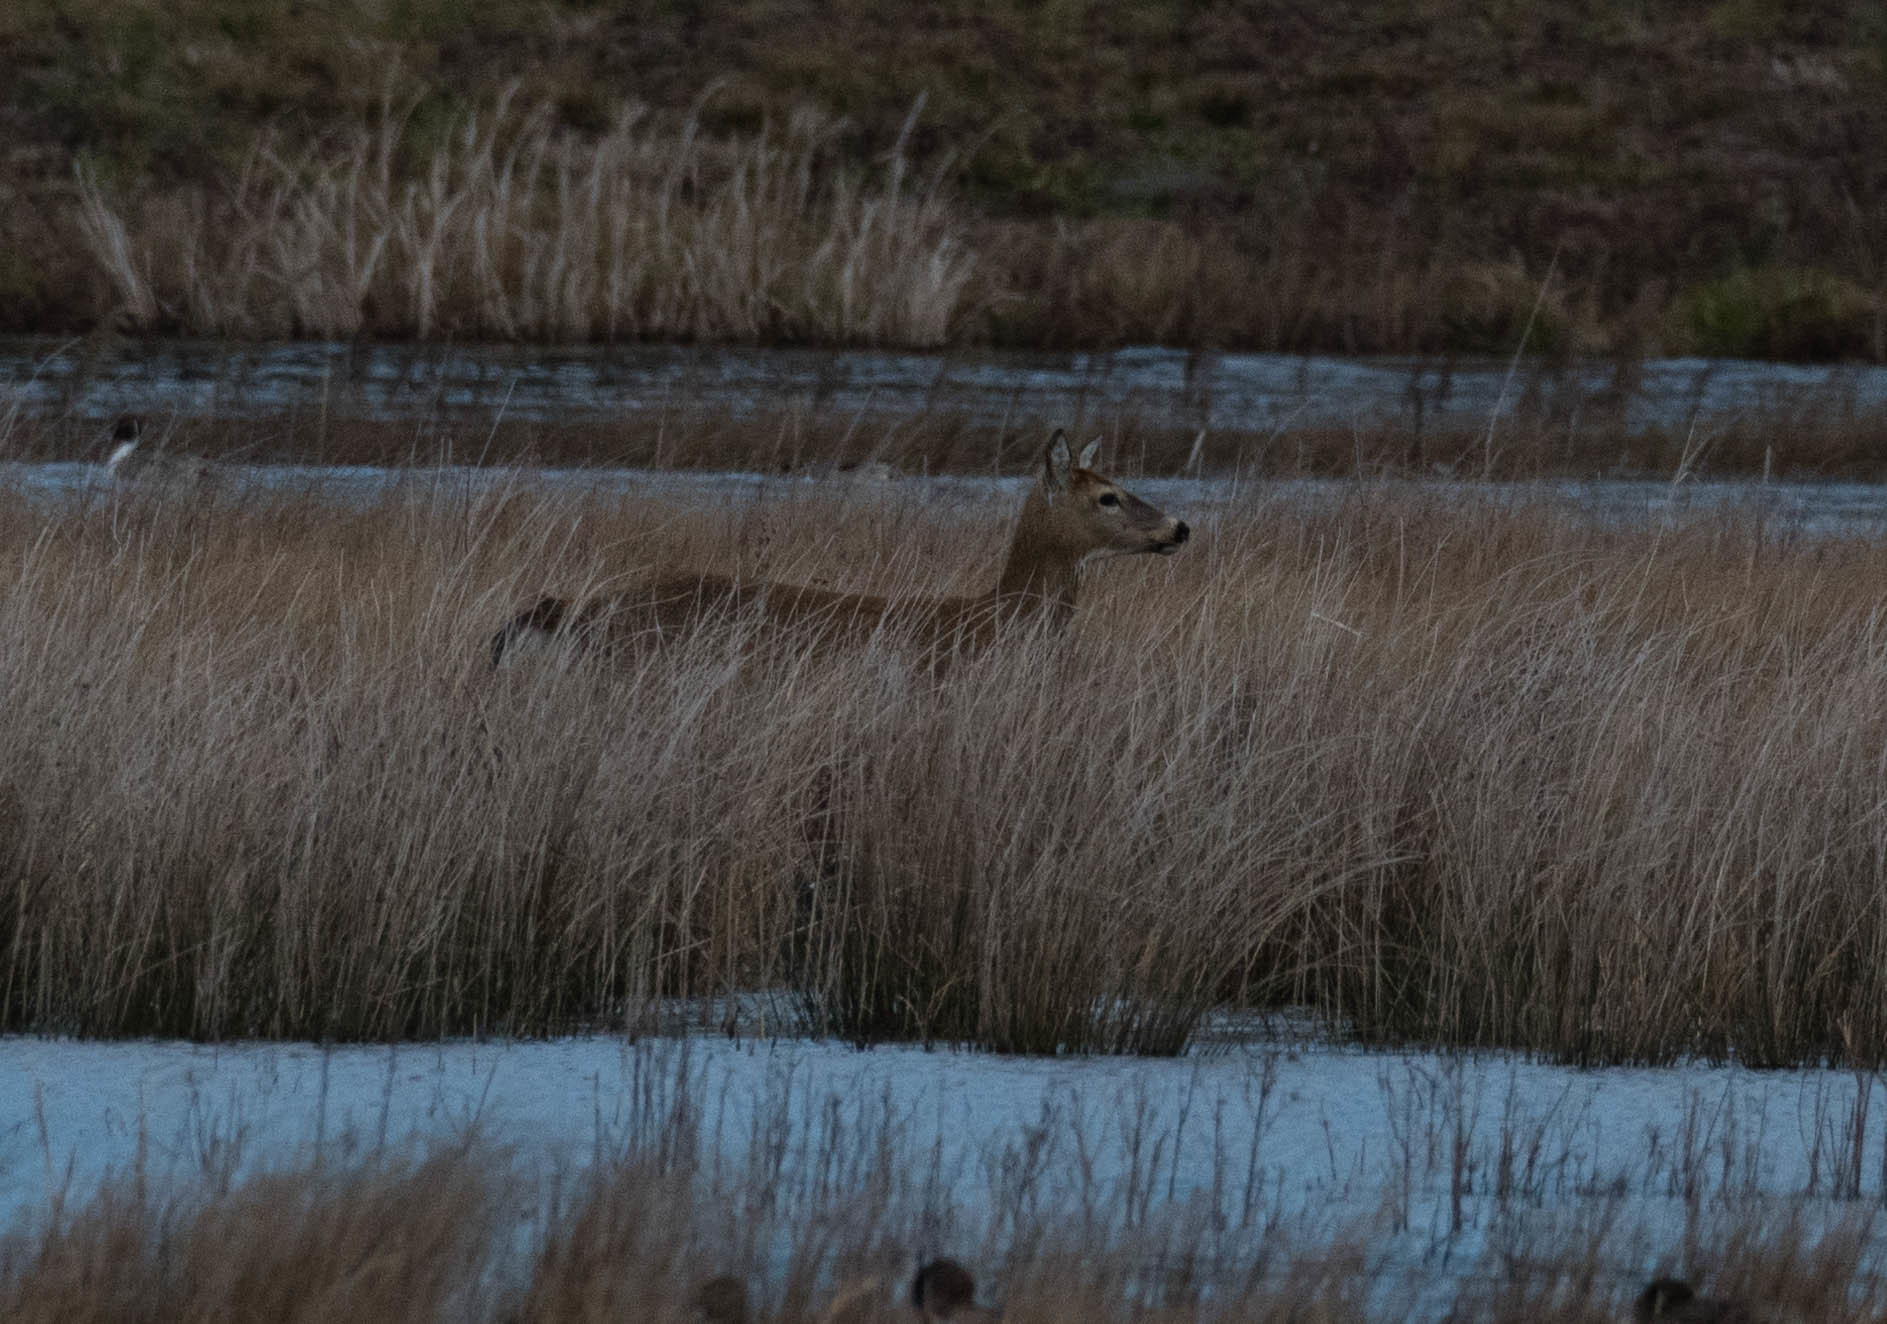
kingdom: Animalia
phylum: Chordata
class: Mammalia
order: Artiodactyla
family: Cervidae
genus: Odocoileus
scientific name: Odocoileus virginianus
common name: White-tailed deer
